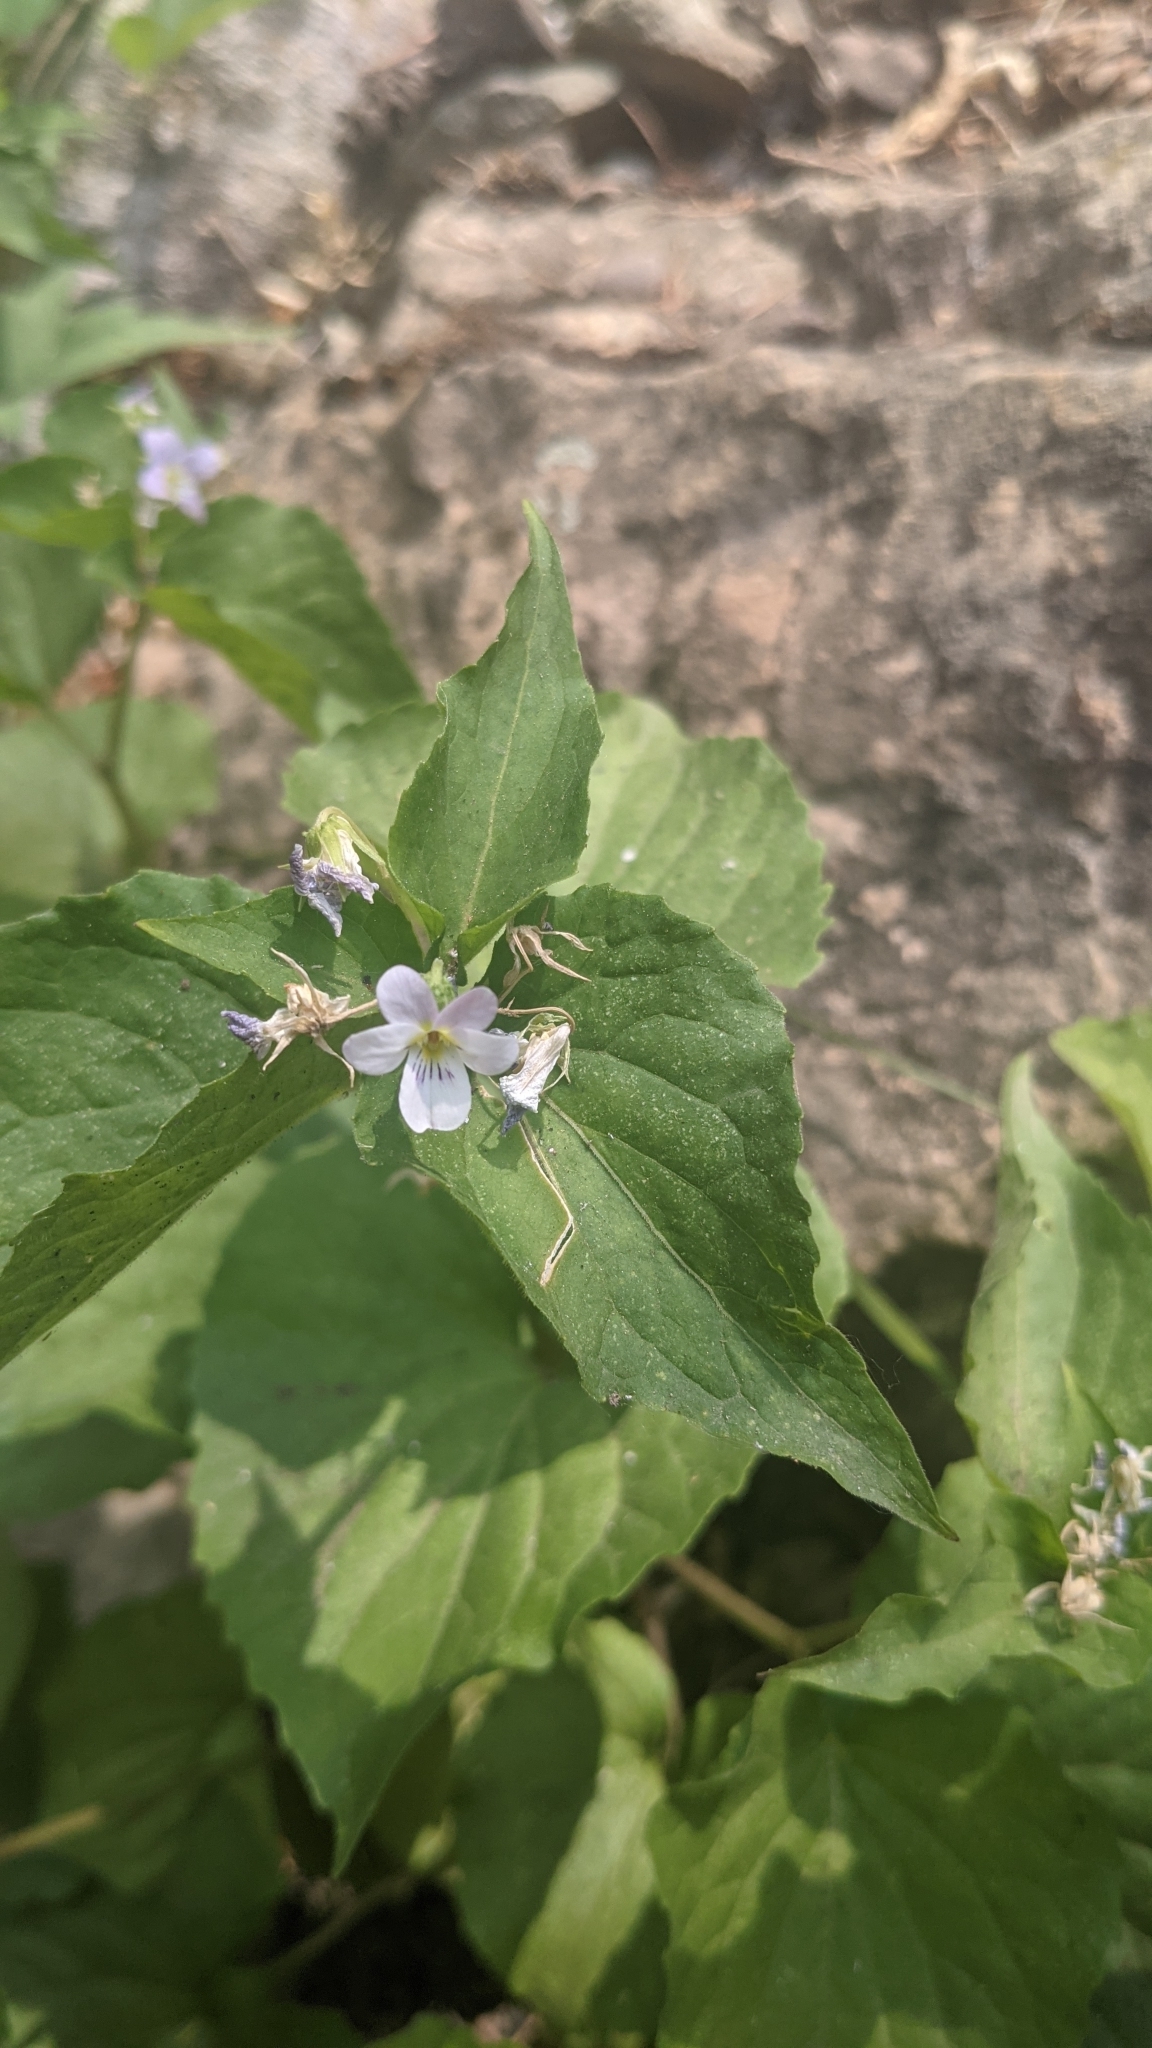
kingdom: Plantae
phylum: Tracheophyta
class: Magnoliopsida
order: Malpighiales
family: Violaceae
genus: Viola
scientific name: Viola canadensis
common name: Canada violet
